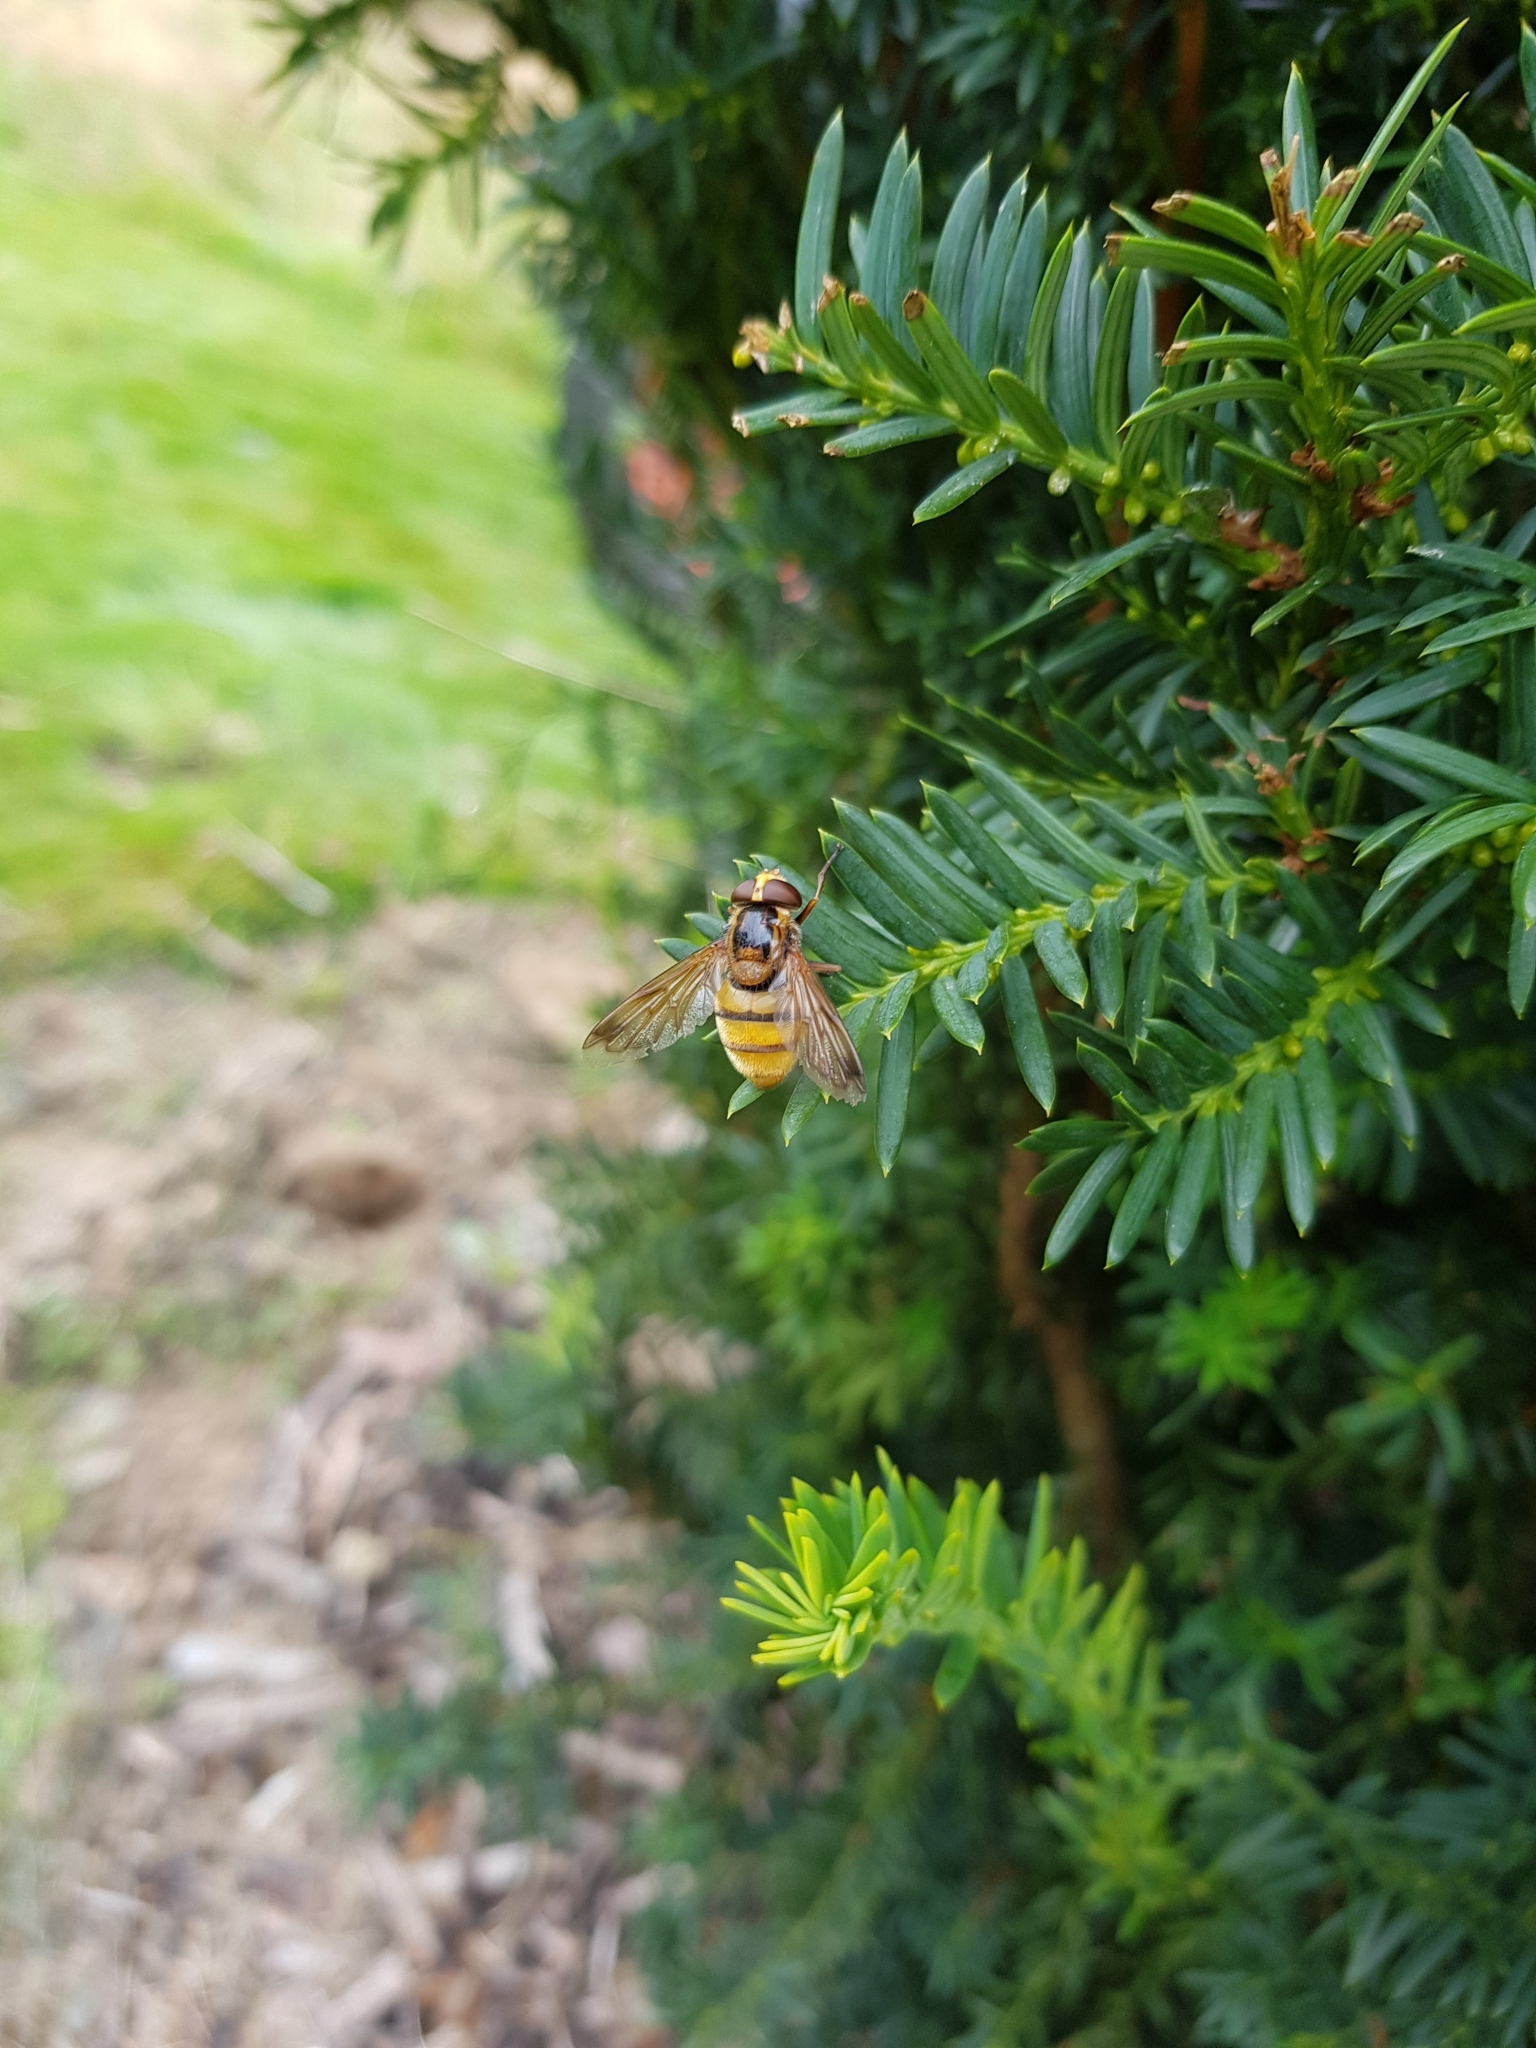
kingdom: Animalia
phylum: Arthropoda
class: Insecta
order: Diptera
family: Syrphidae
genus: Volucella
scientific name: Volucella inanis
